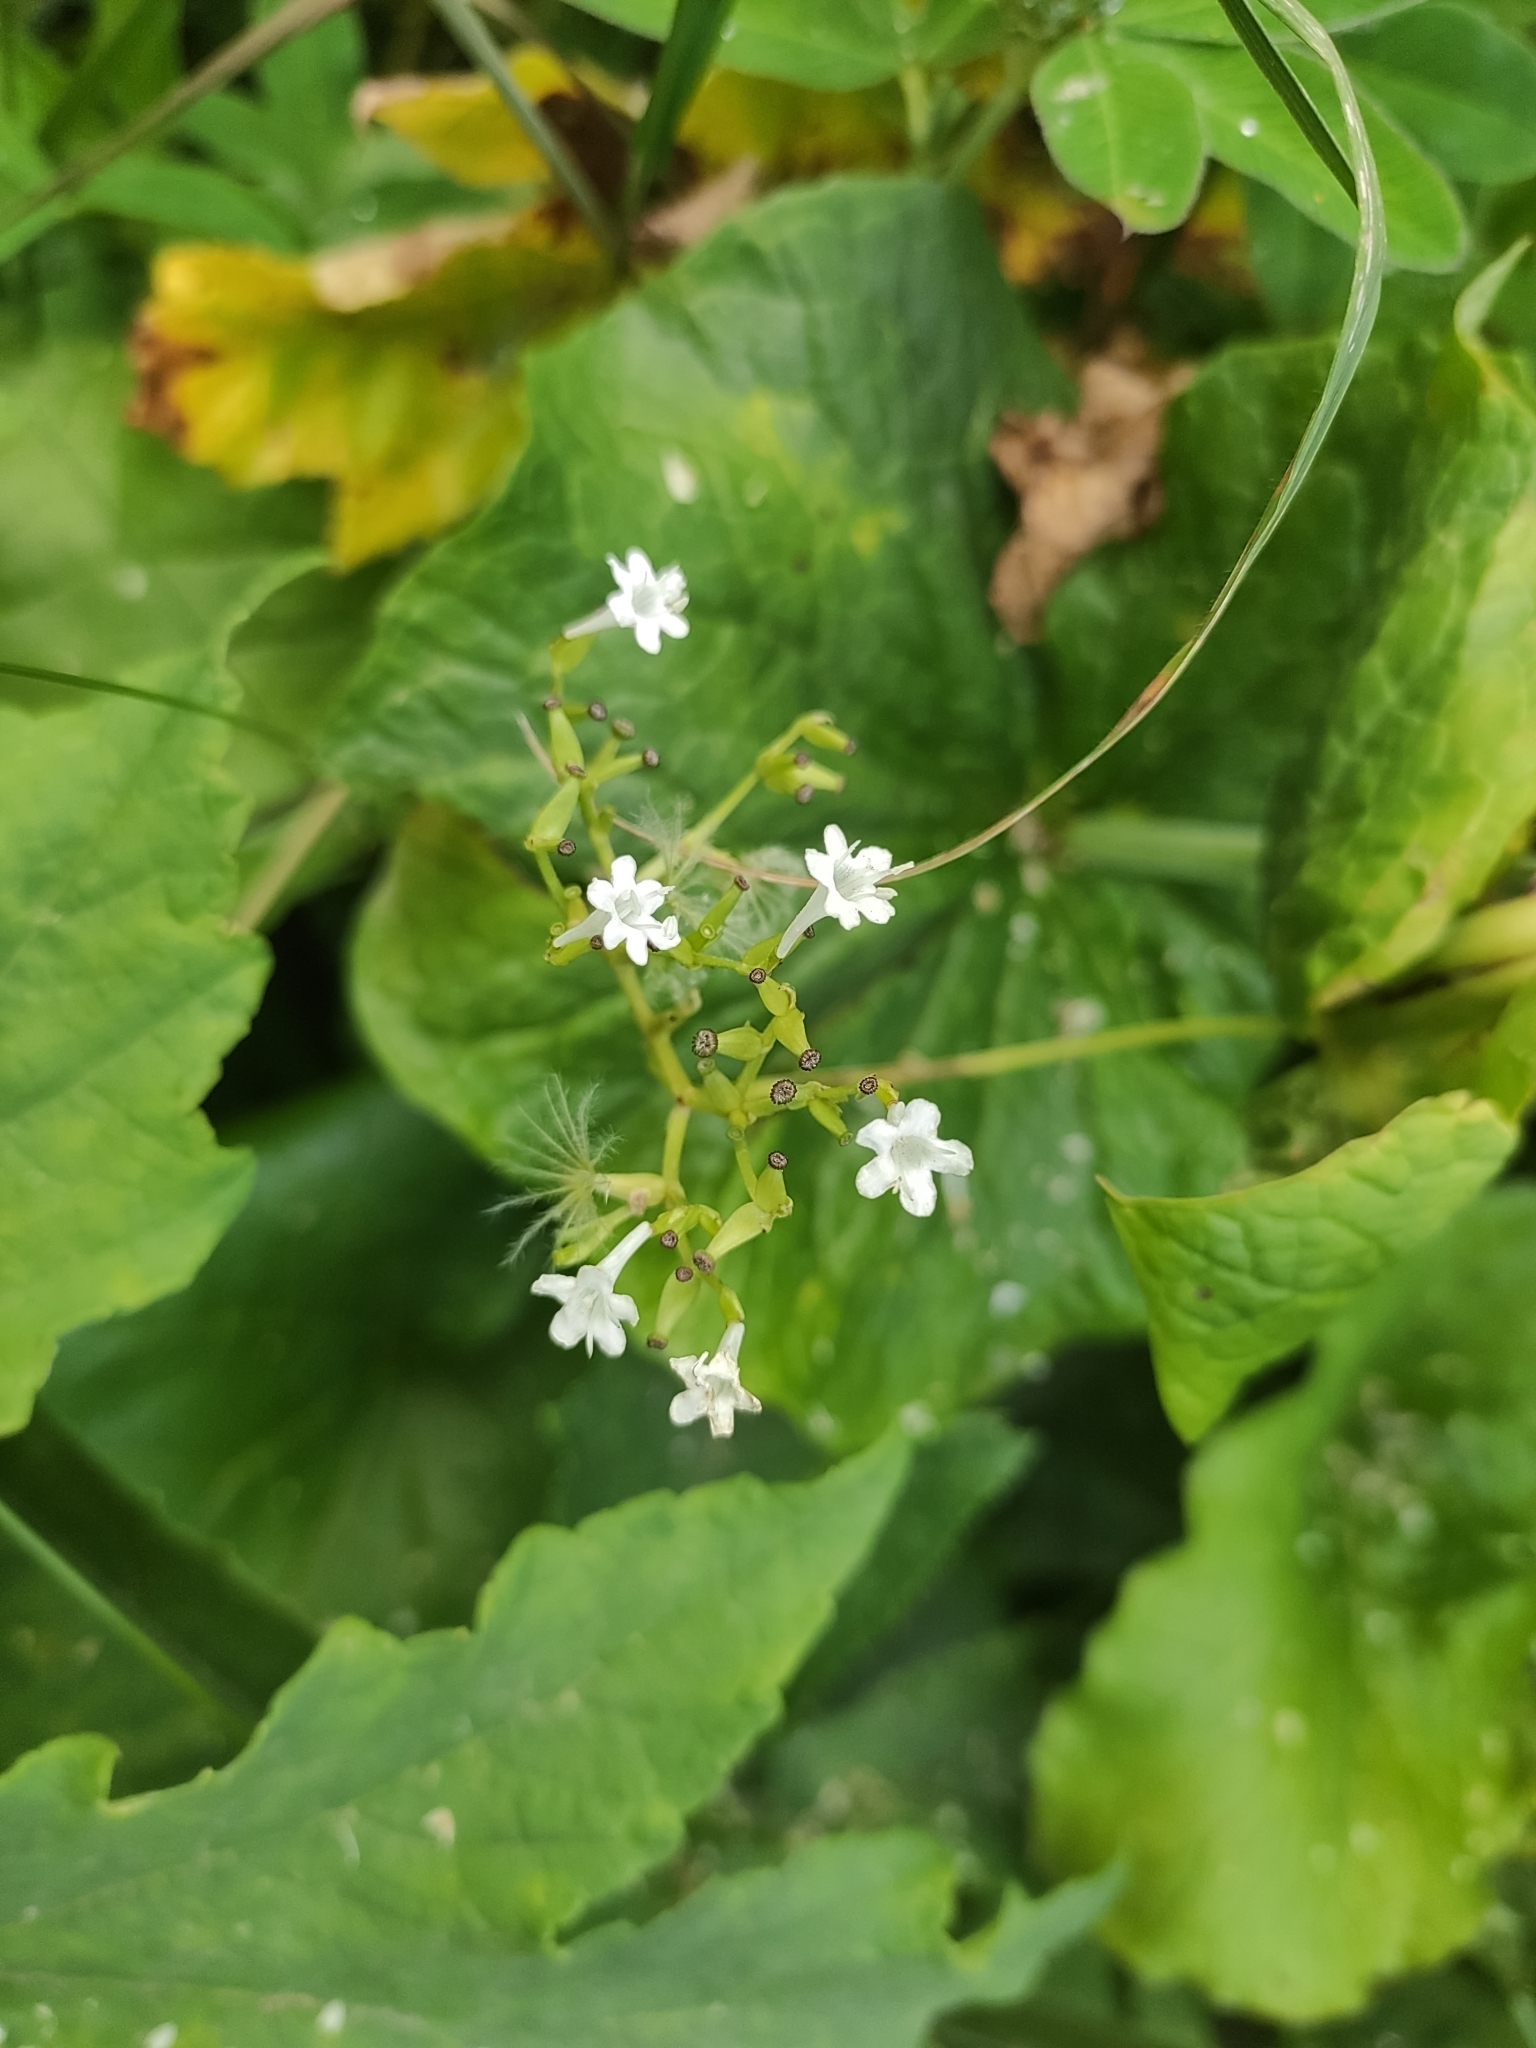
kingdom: Plantae
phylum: Tracheophyta
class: Magnoliopsida
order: Dipsacales
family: Caprifoliaceae
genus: Valeriana
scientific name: Valeriana alliariifolia
